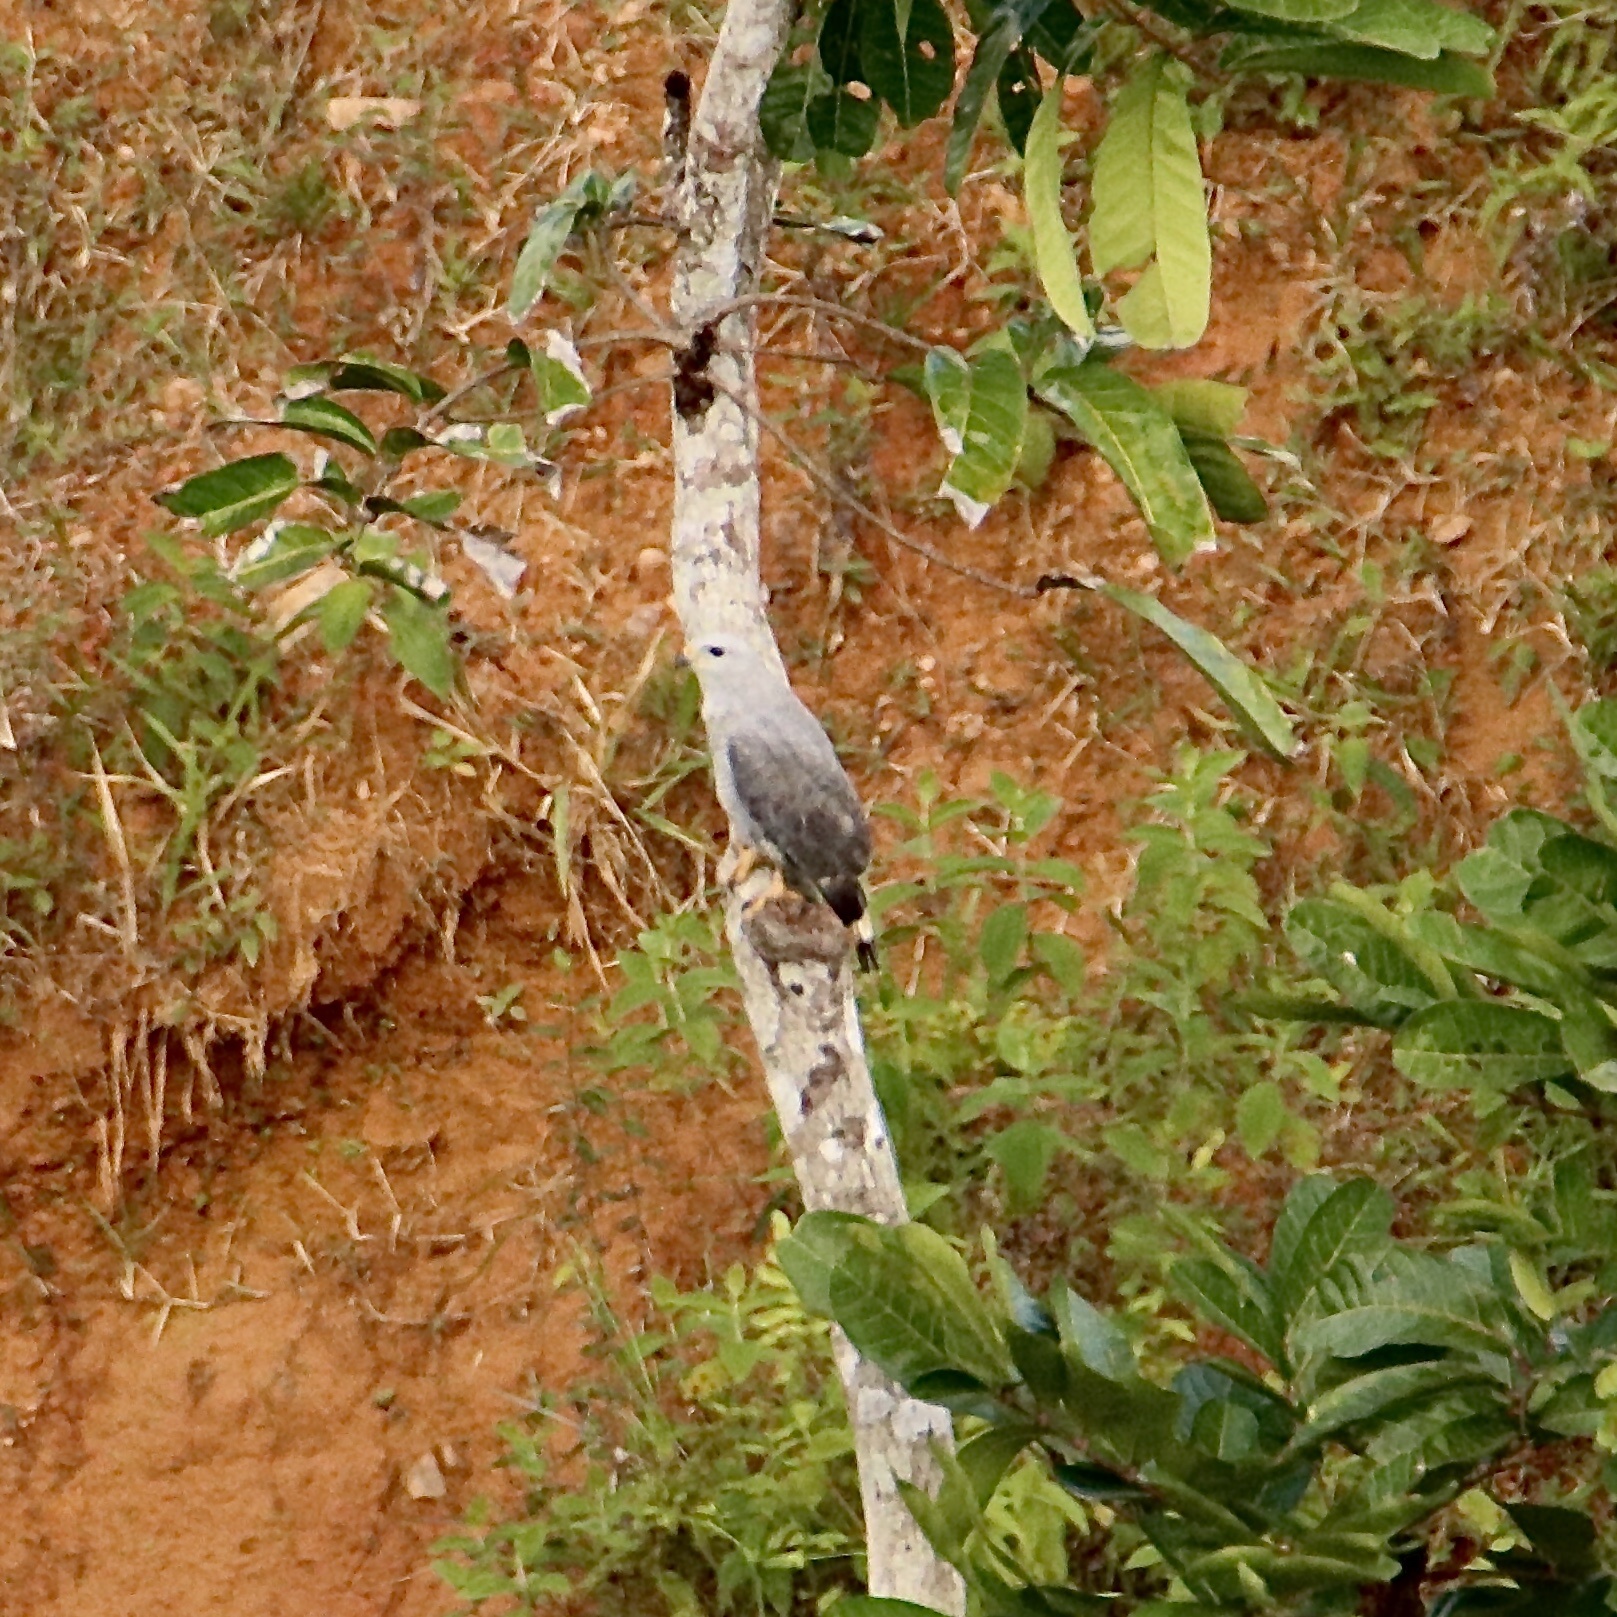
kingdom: Animalia
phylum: Chordata
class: Aves
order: Accipitriformes
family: Accipitridae
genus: Buteo
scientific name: Buteo nitidus
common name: Grey-lined hawk
